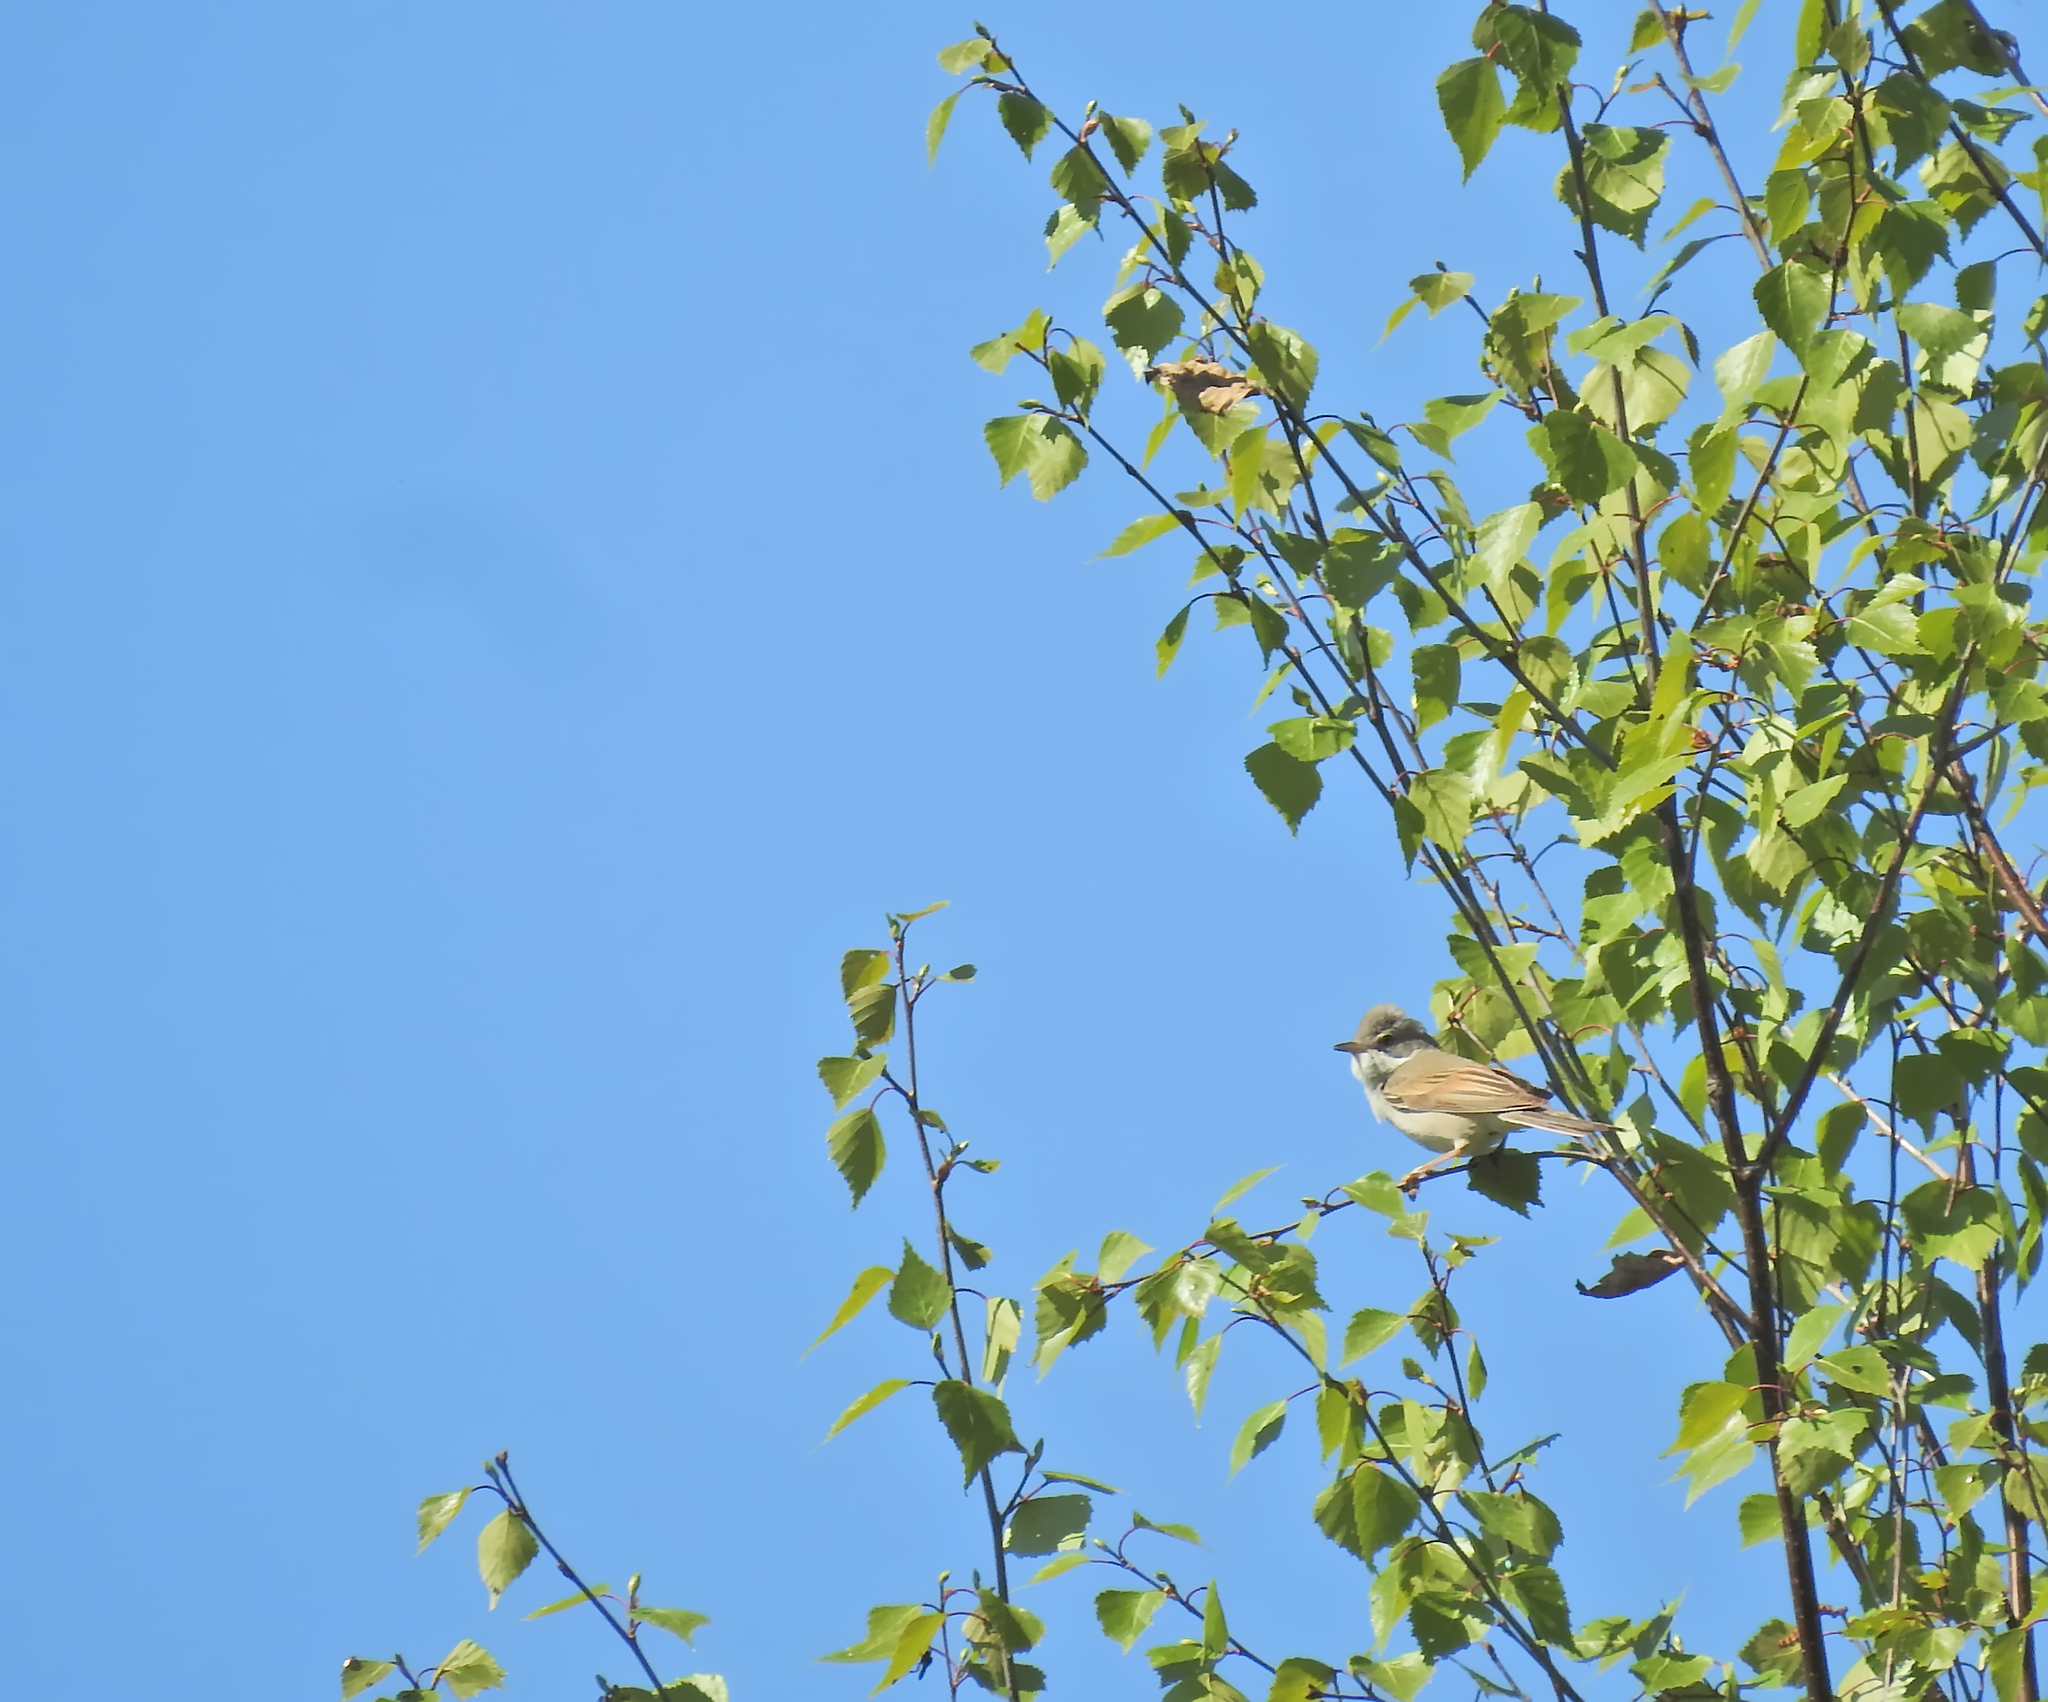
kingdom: Animalia
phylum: Chordata
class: Aves
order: Passeriformes
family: Sylviidae
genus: Sylvia
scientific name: Sylvia communis
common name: Common whitethroat
